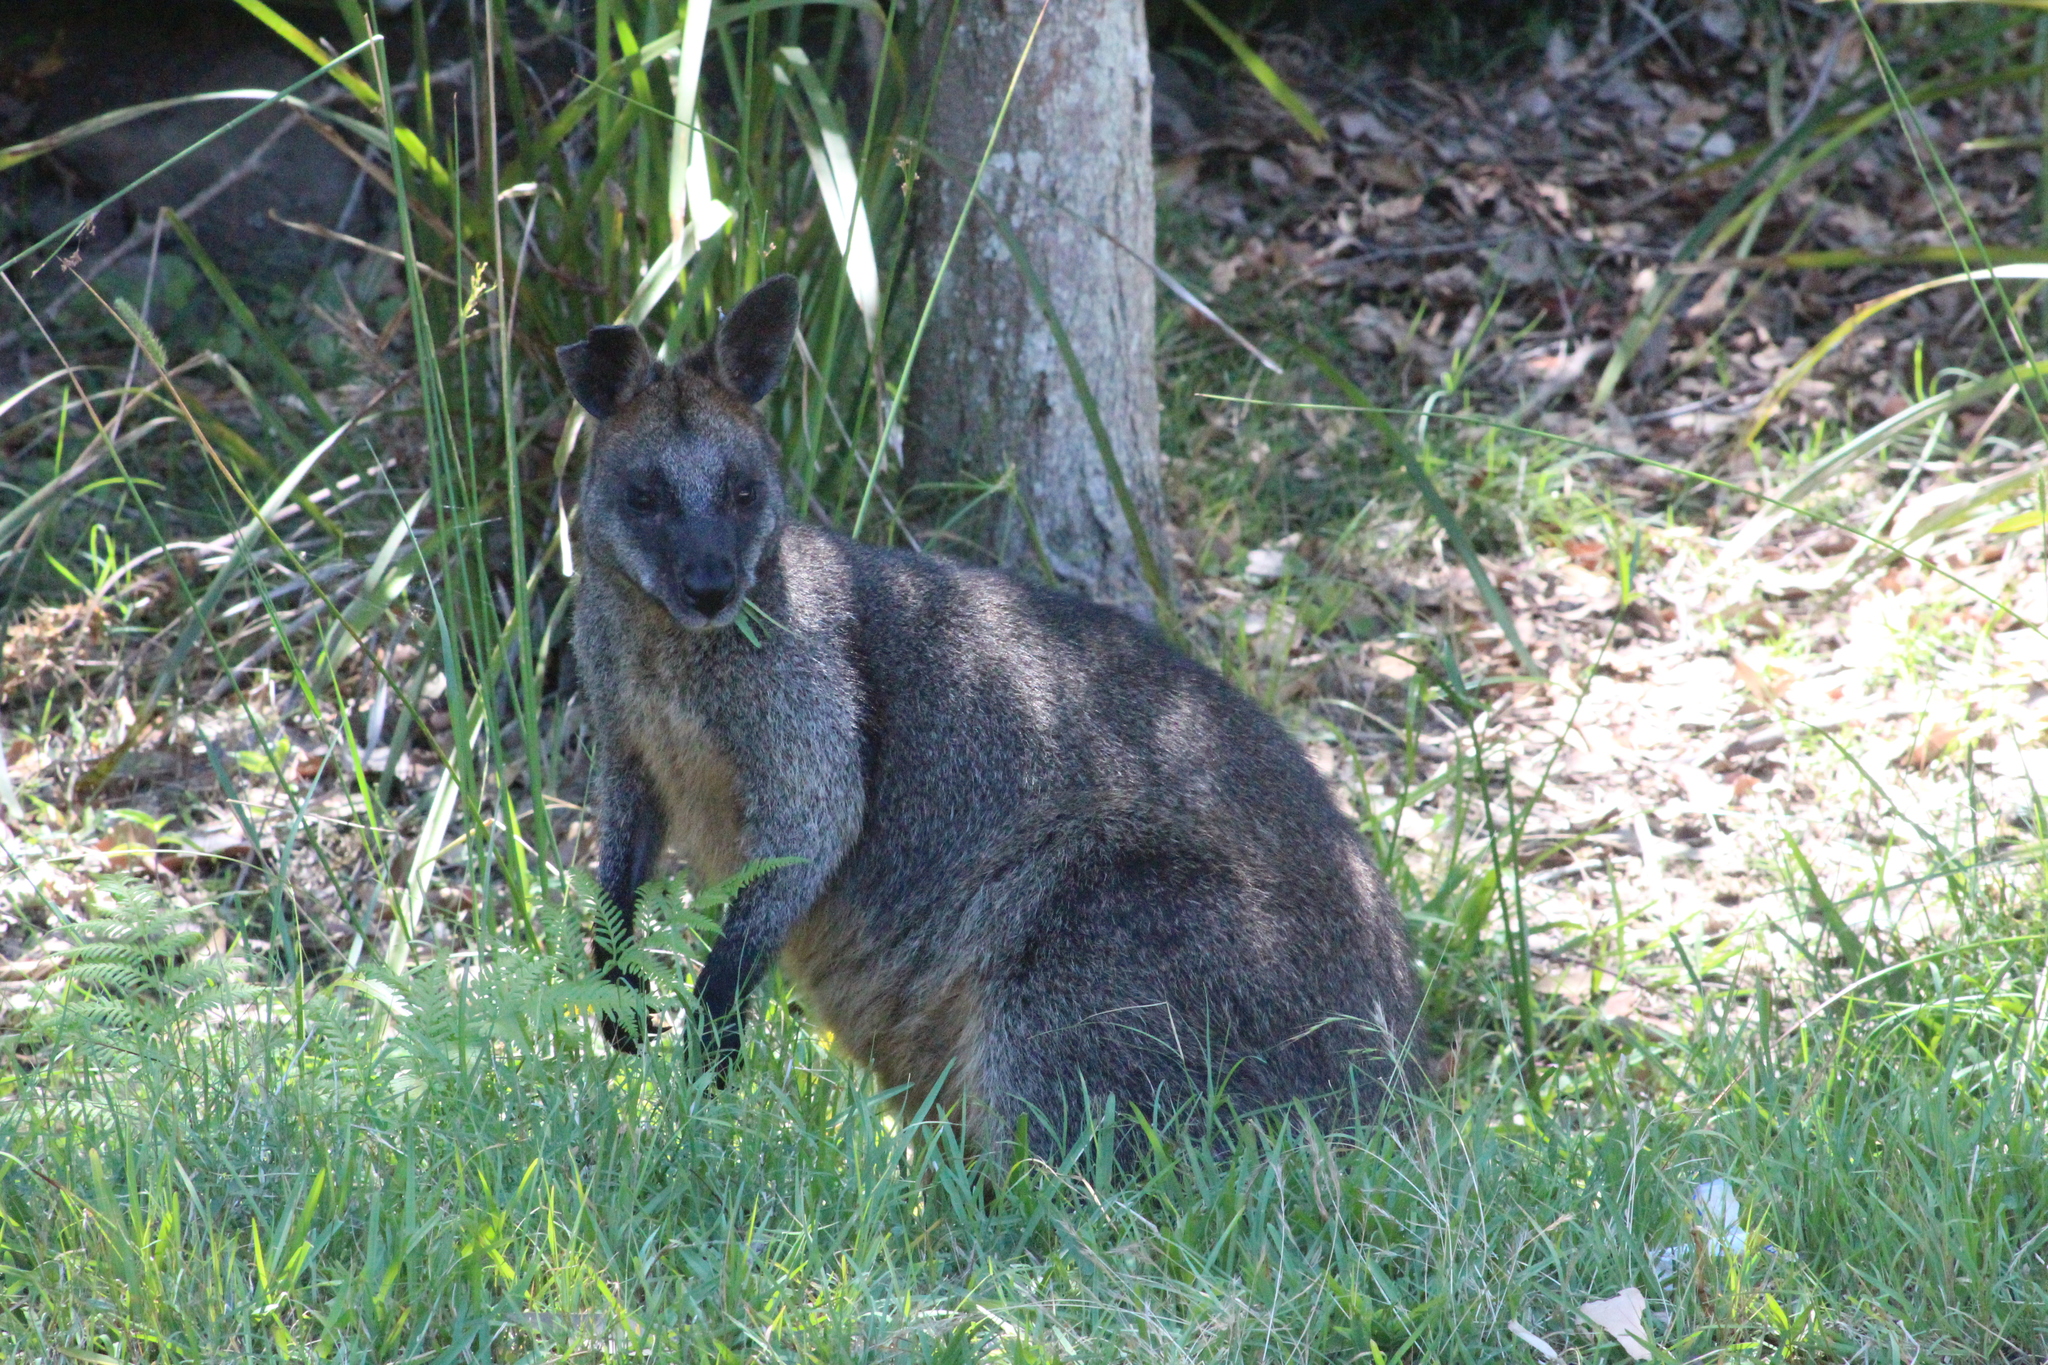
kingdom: Animalia
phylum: Chordata
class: Mammalia
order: Diprotodontia
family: Macropodidae
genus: Wallabia
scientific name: Wallabia bicolor
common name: Swamp wallaby
